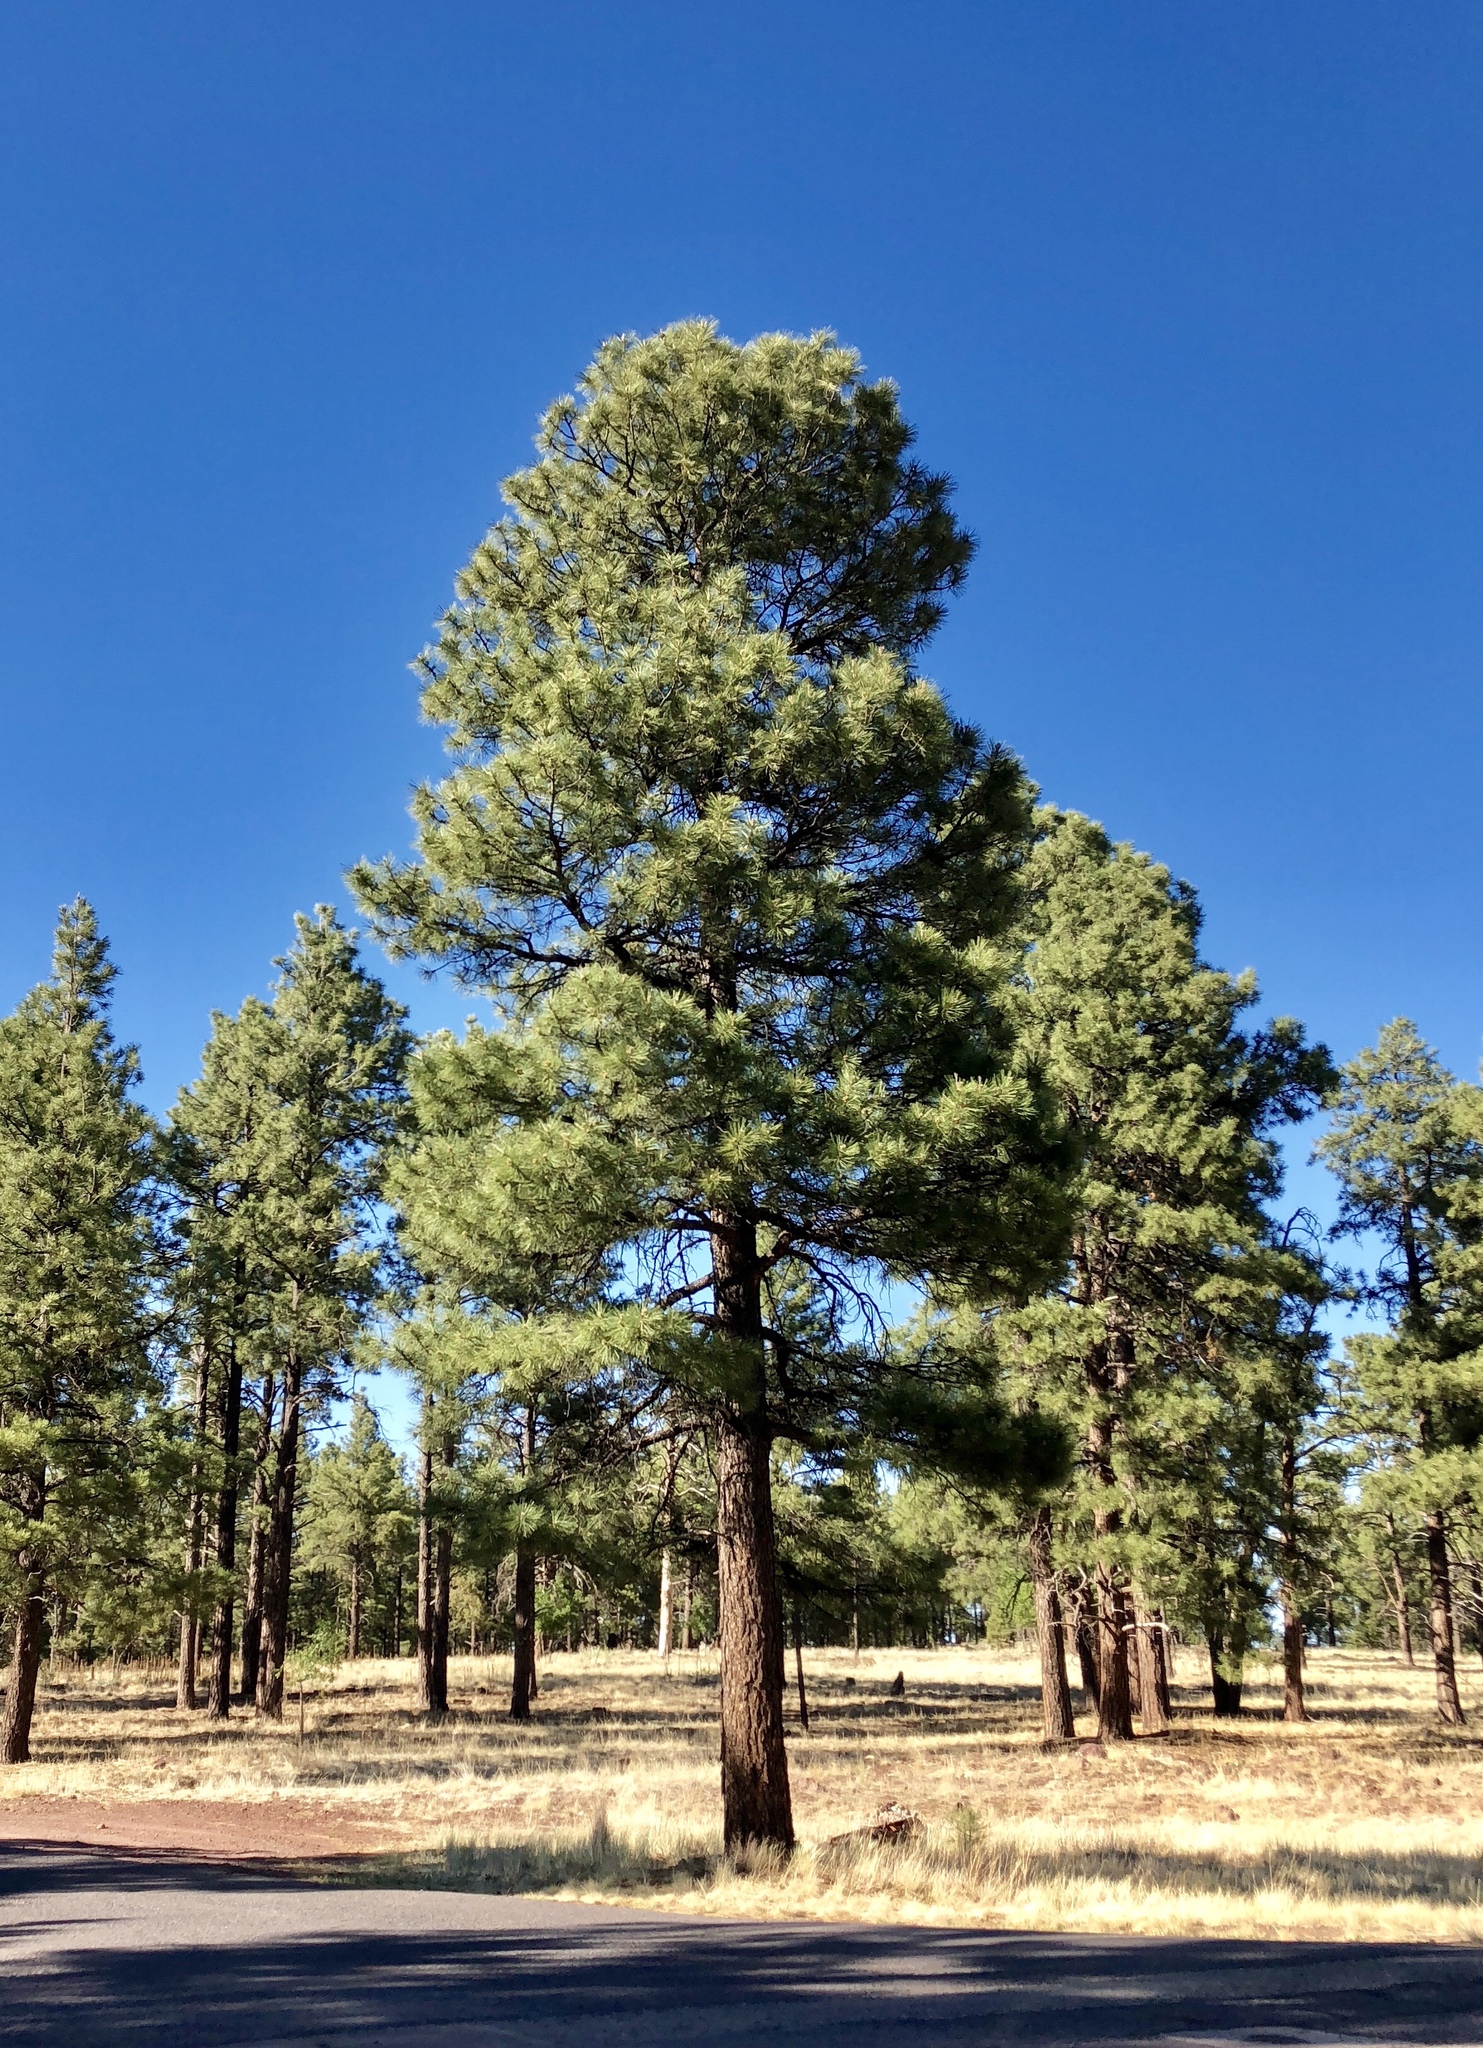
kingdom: Plantae
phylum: Tracheophyta
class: Pinopsida
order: Pinales
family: Pinaceae
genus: Pinus
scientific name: Pinus ponderosa
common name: Western yellow-pine
